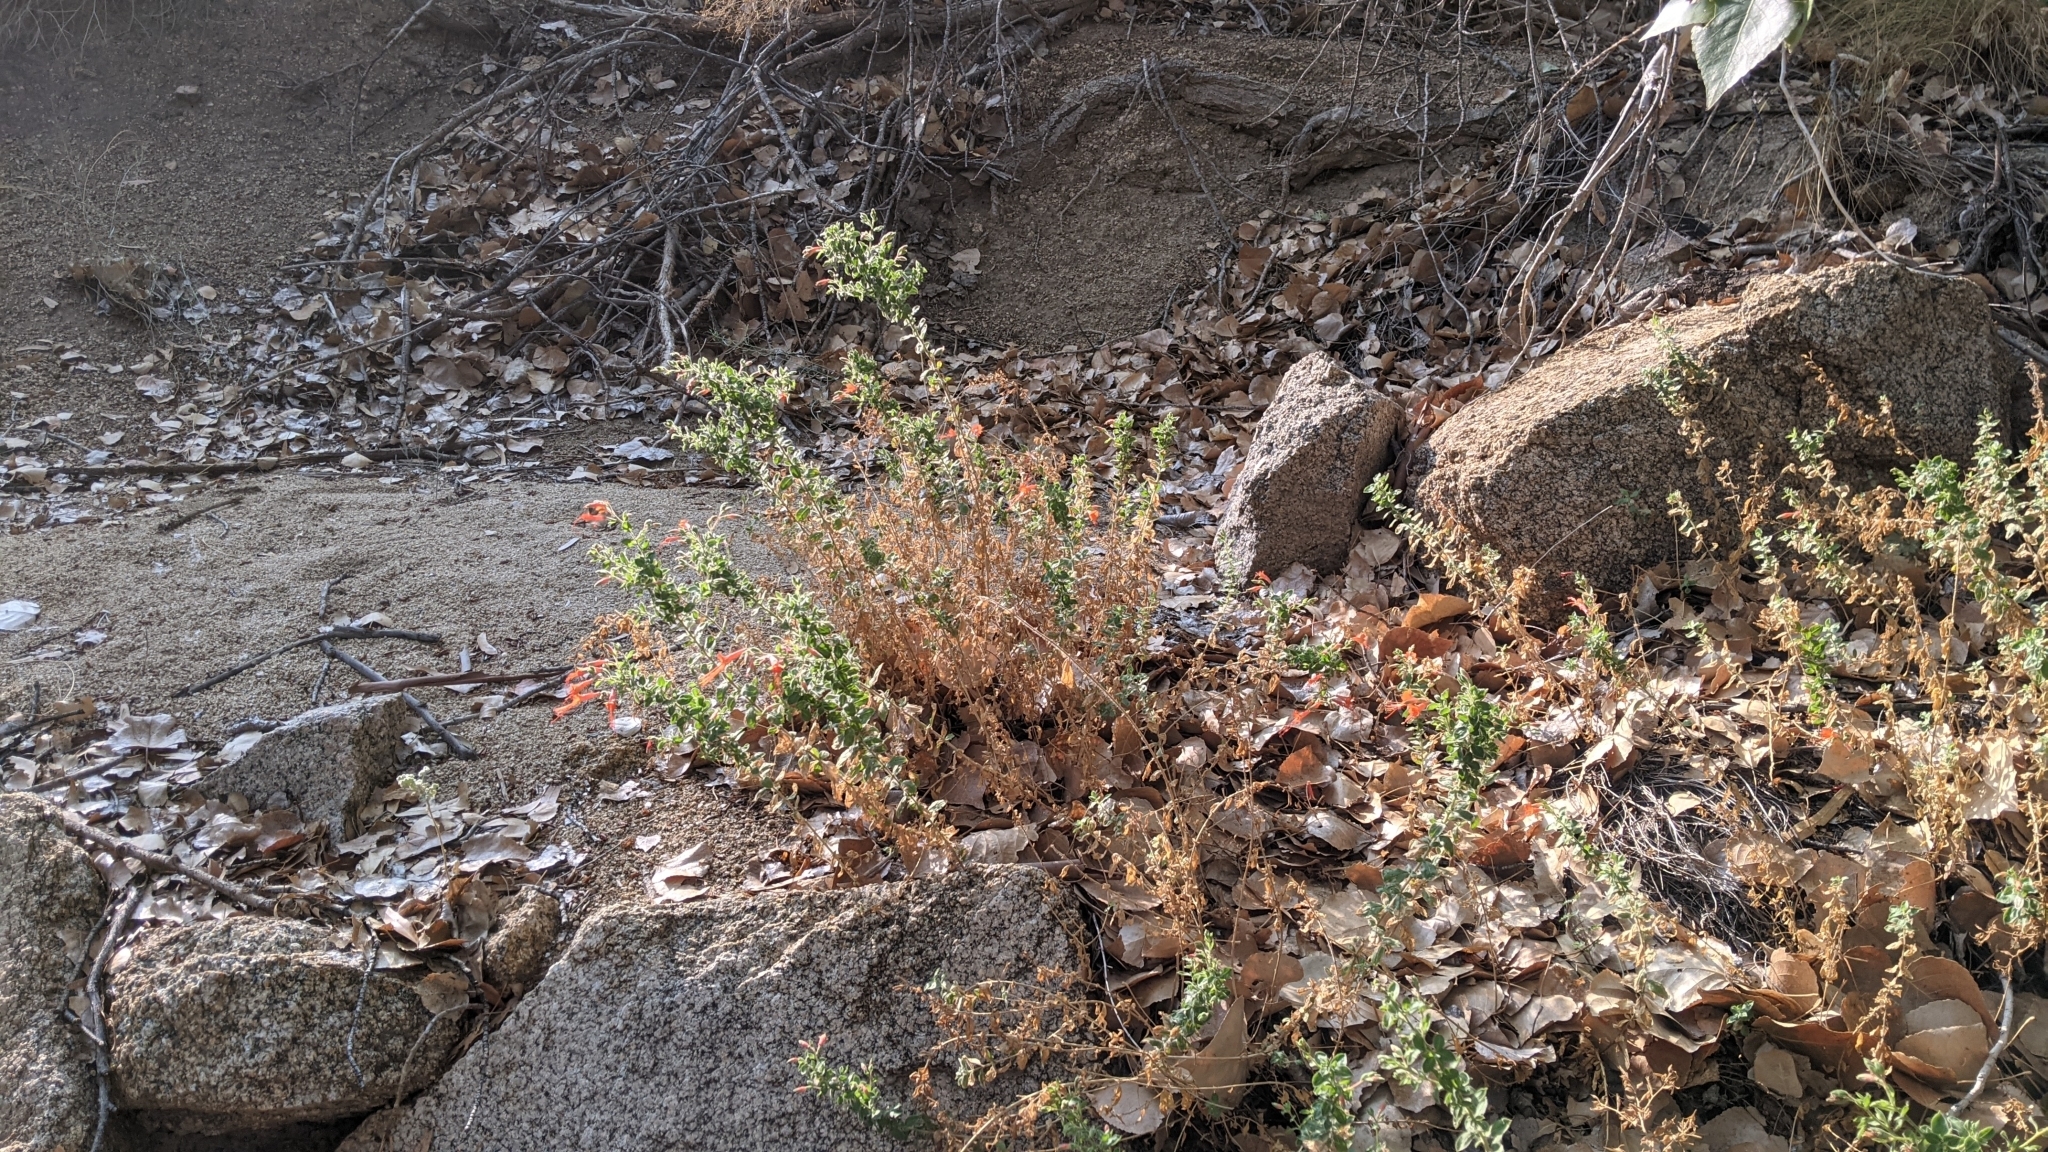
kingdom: Plantae
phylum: Tracheophyta
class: Magnoliopsida
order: Myrtales
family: Onagraceae
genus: Epilobium
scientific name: Epilobium canum
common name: California-fuchsia
